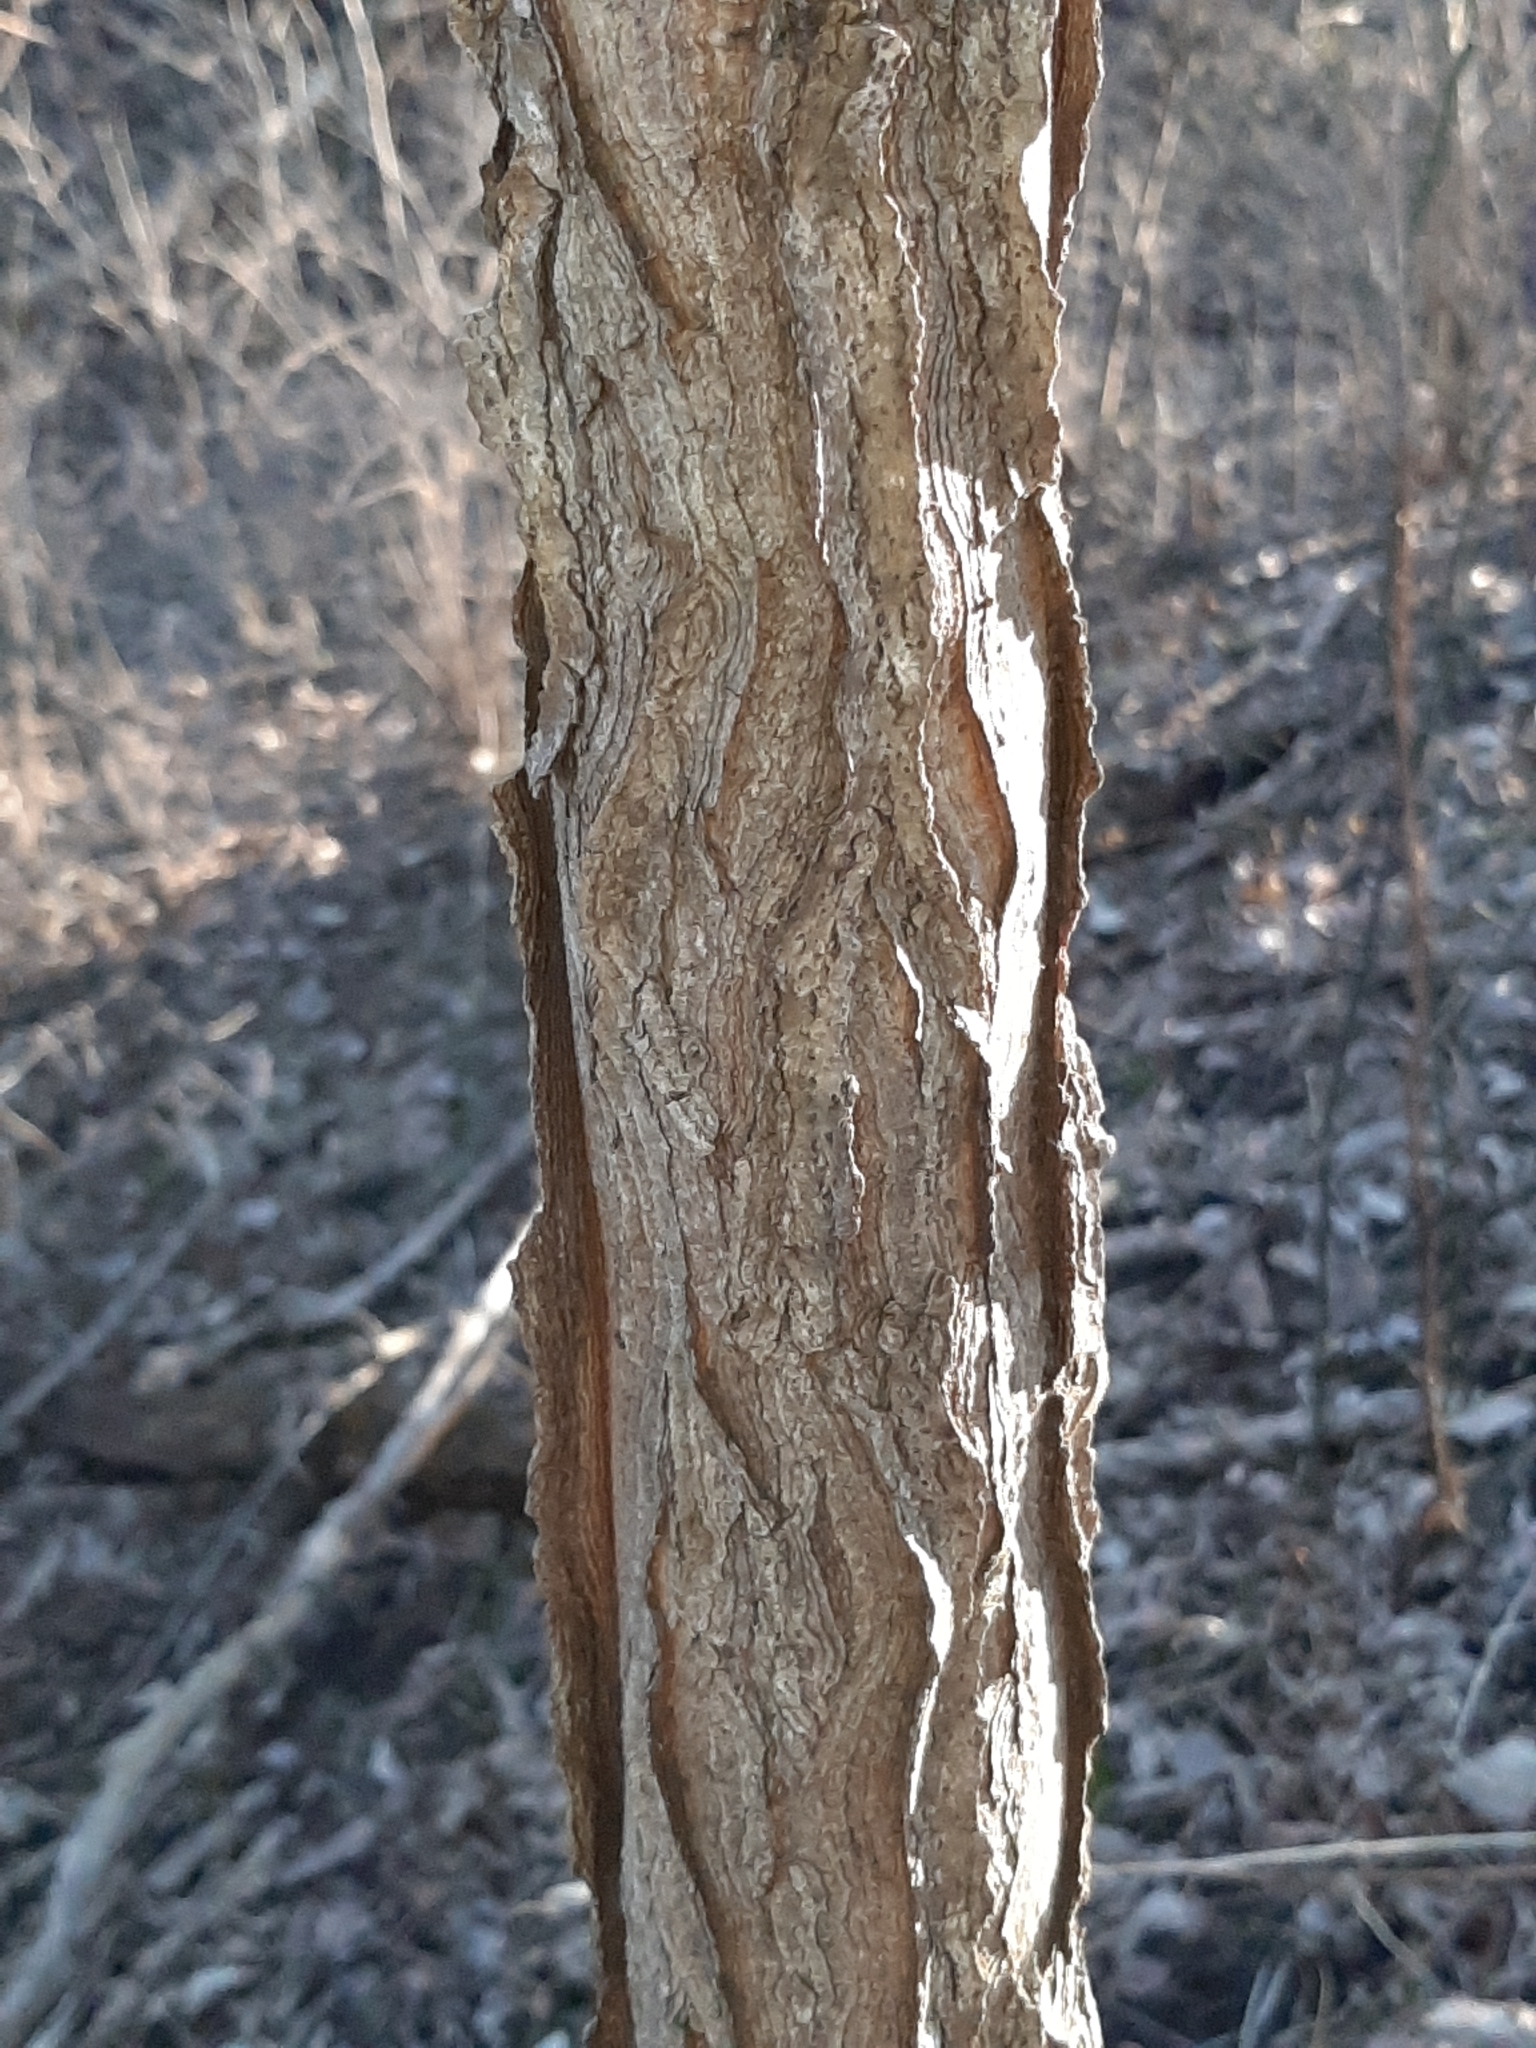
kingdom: Plantae
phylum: Tracheophyta
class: Magnoliopsida
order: Fabales
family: Fabaceae
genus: Gymnocladus
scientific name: Gymnocladus dioicus
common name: Kentucky coffee-tree
